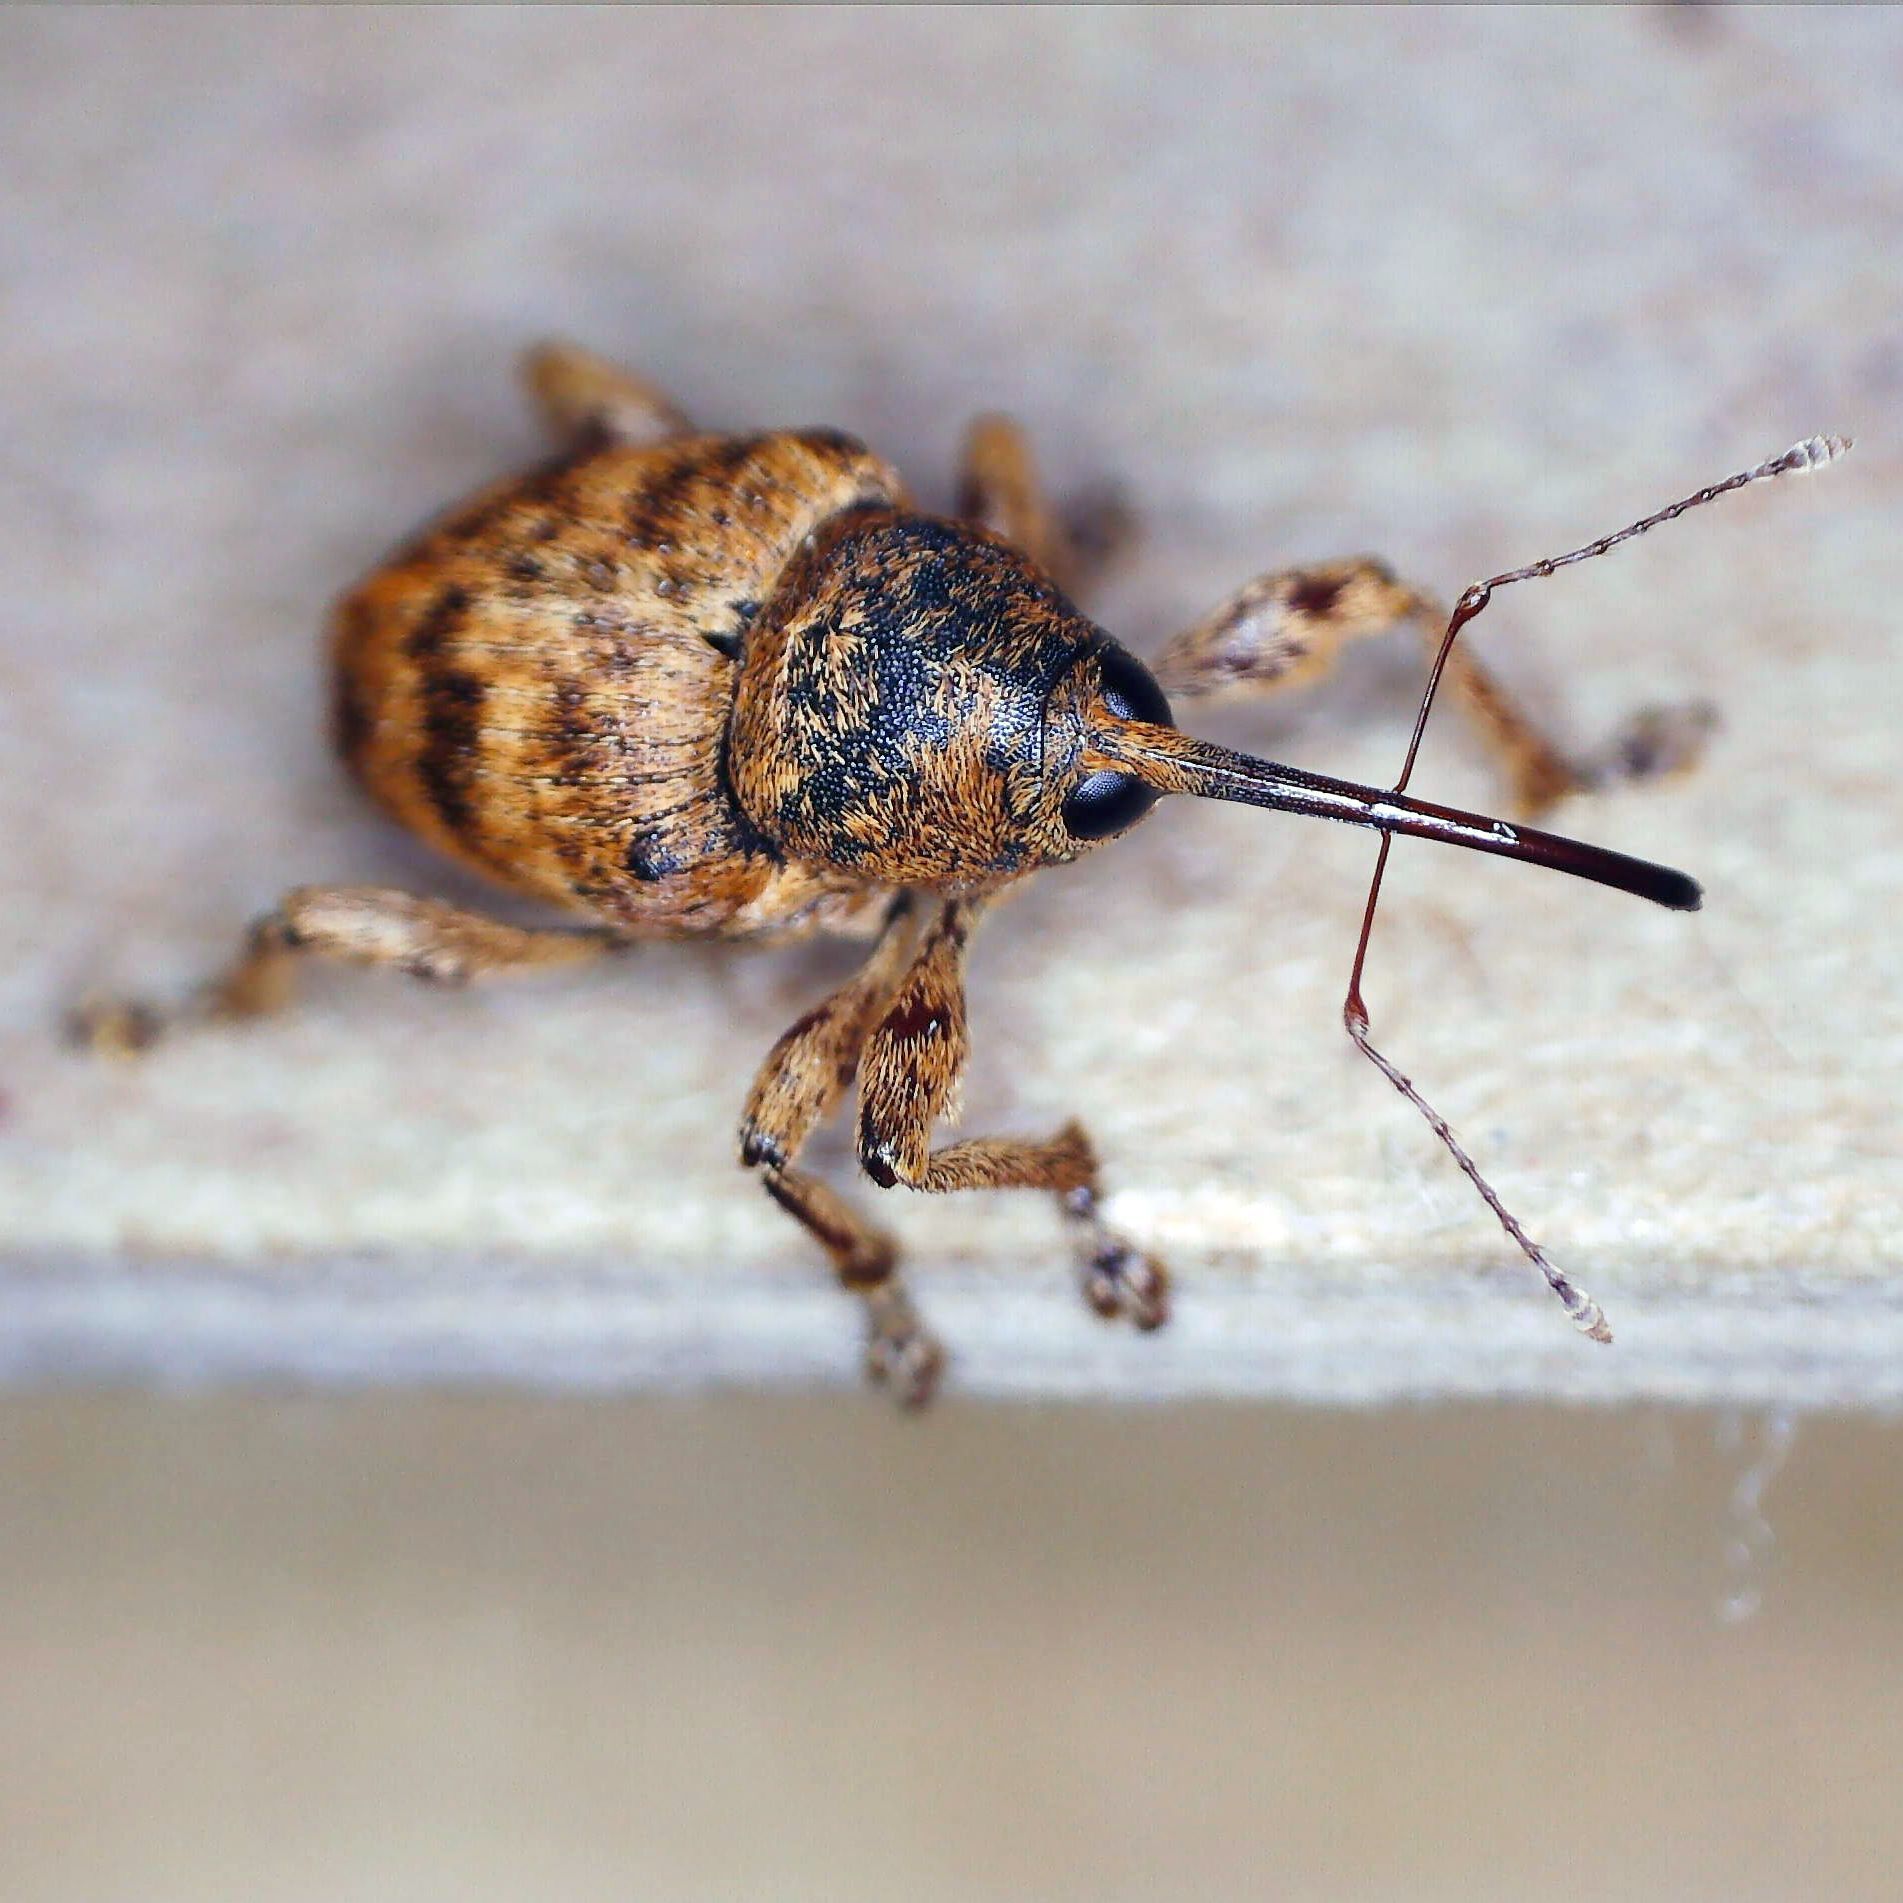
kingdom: Animalia
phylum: Arthropoda
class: Insecta
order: Coleoptera
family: Curculionidae
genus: Curculio
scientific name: Curculio venosus
